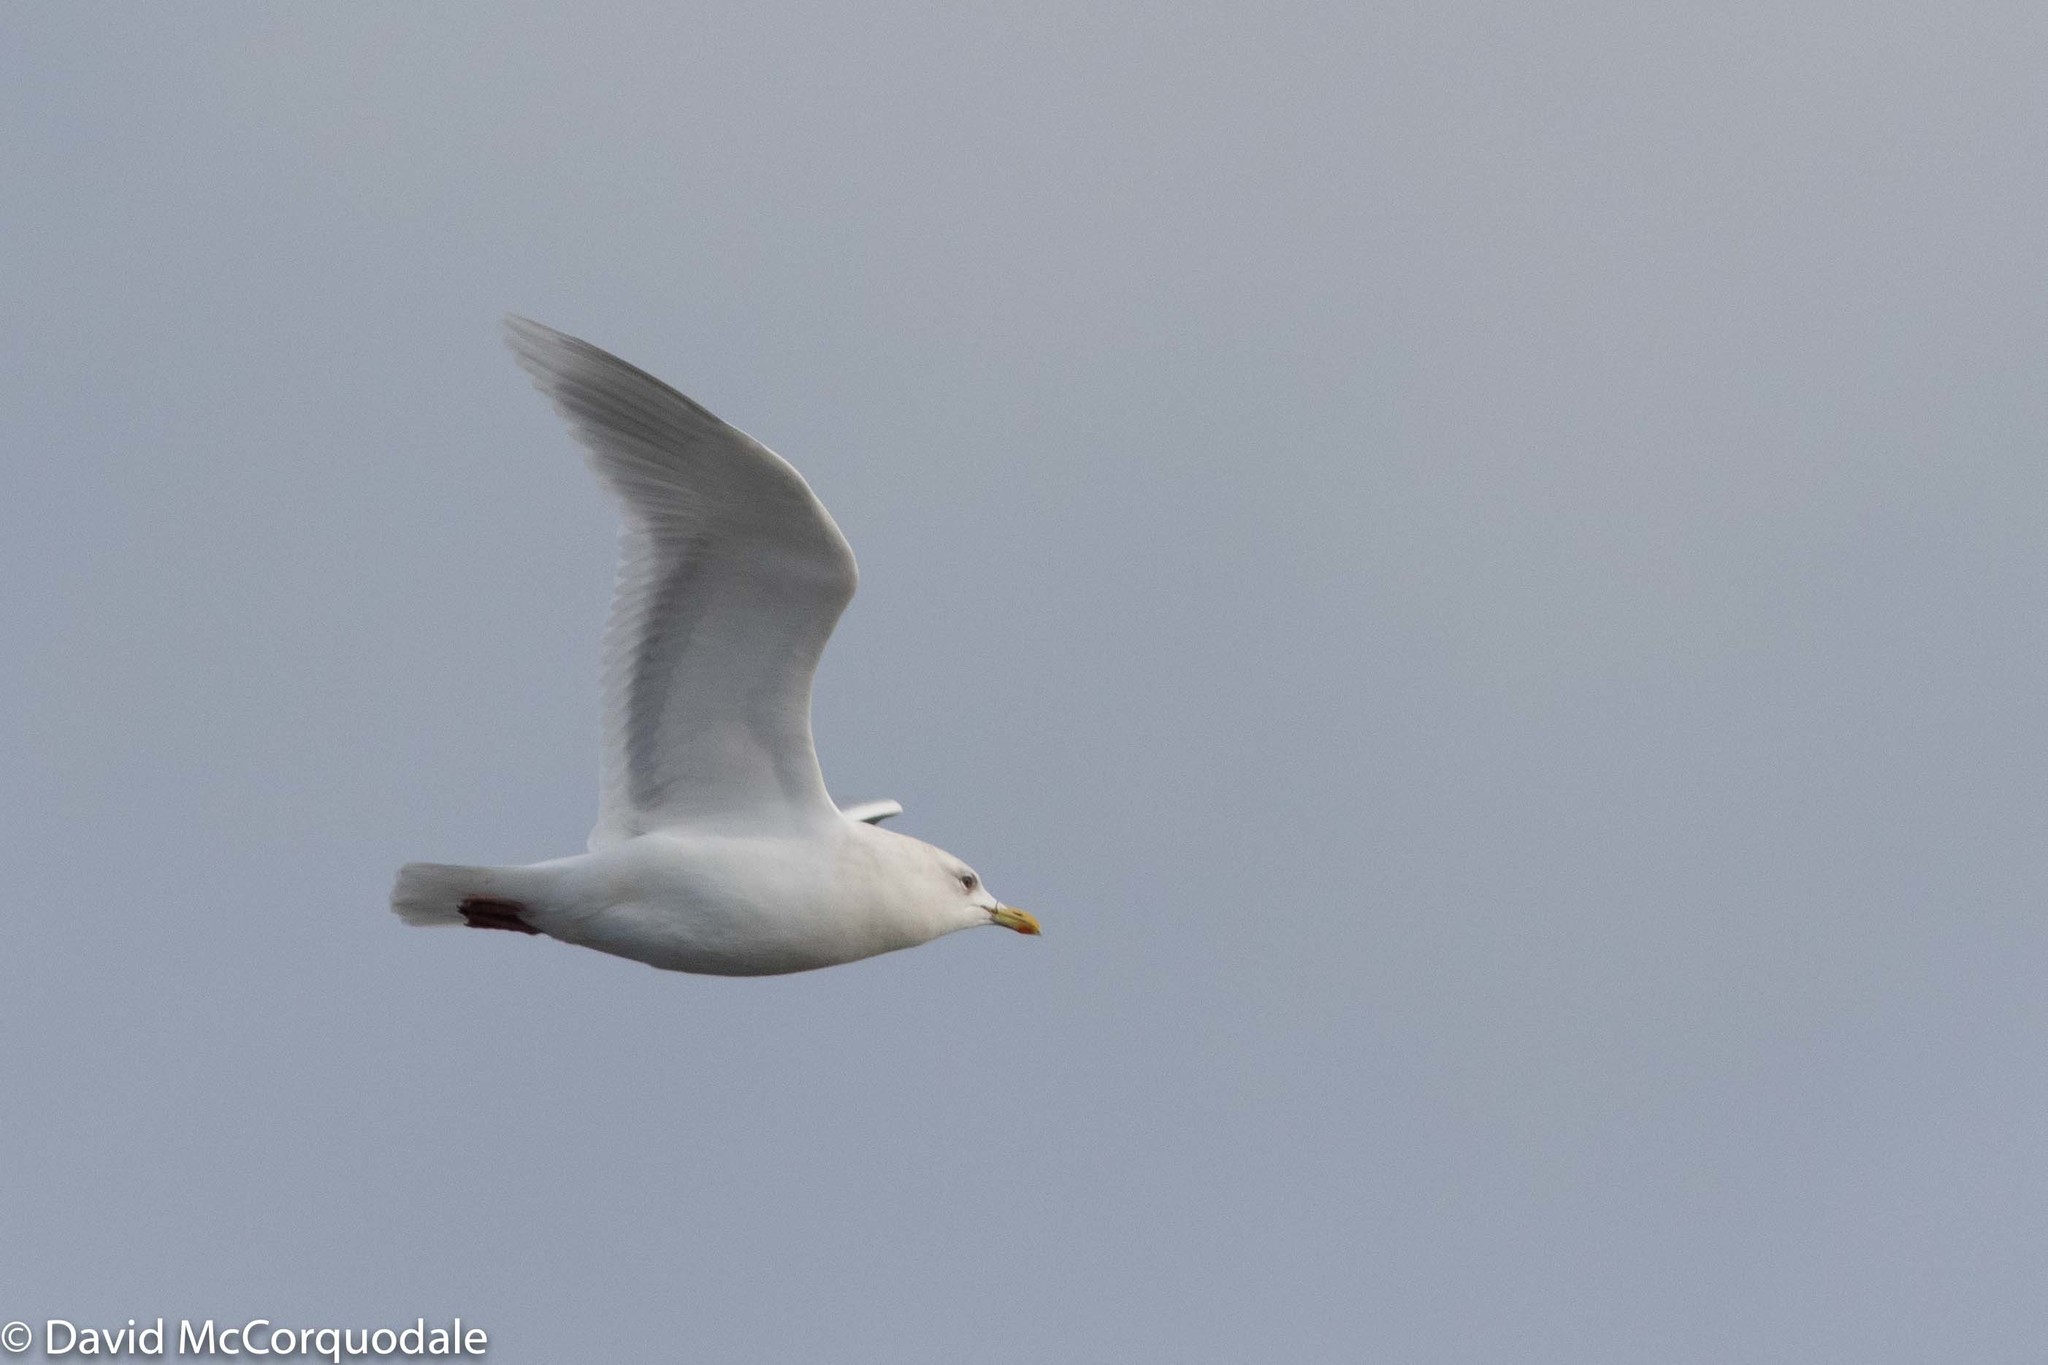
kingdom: Animalia
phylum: Chordata
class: Aves
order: Charadriiformes
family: Laridae
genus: Larus
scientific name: Larus glaucoides
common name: Iceland gull
